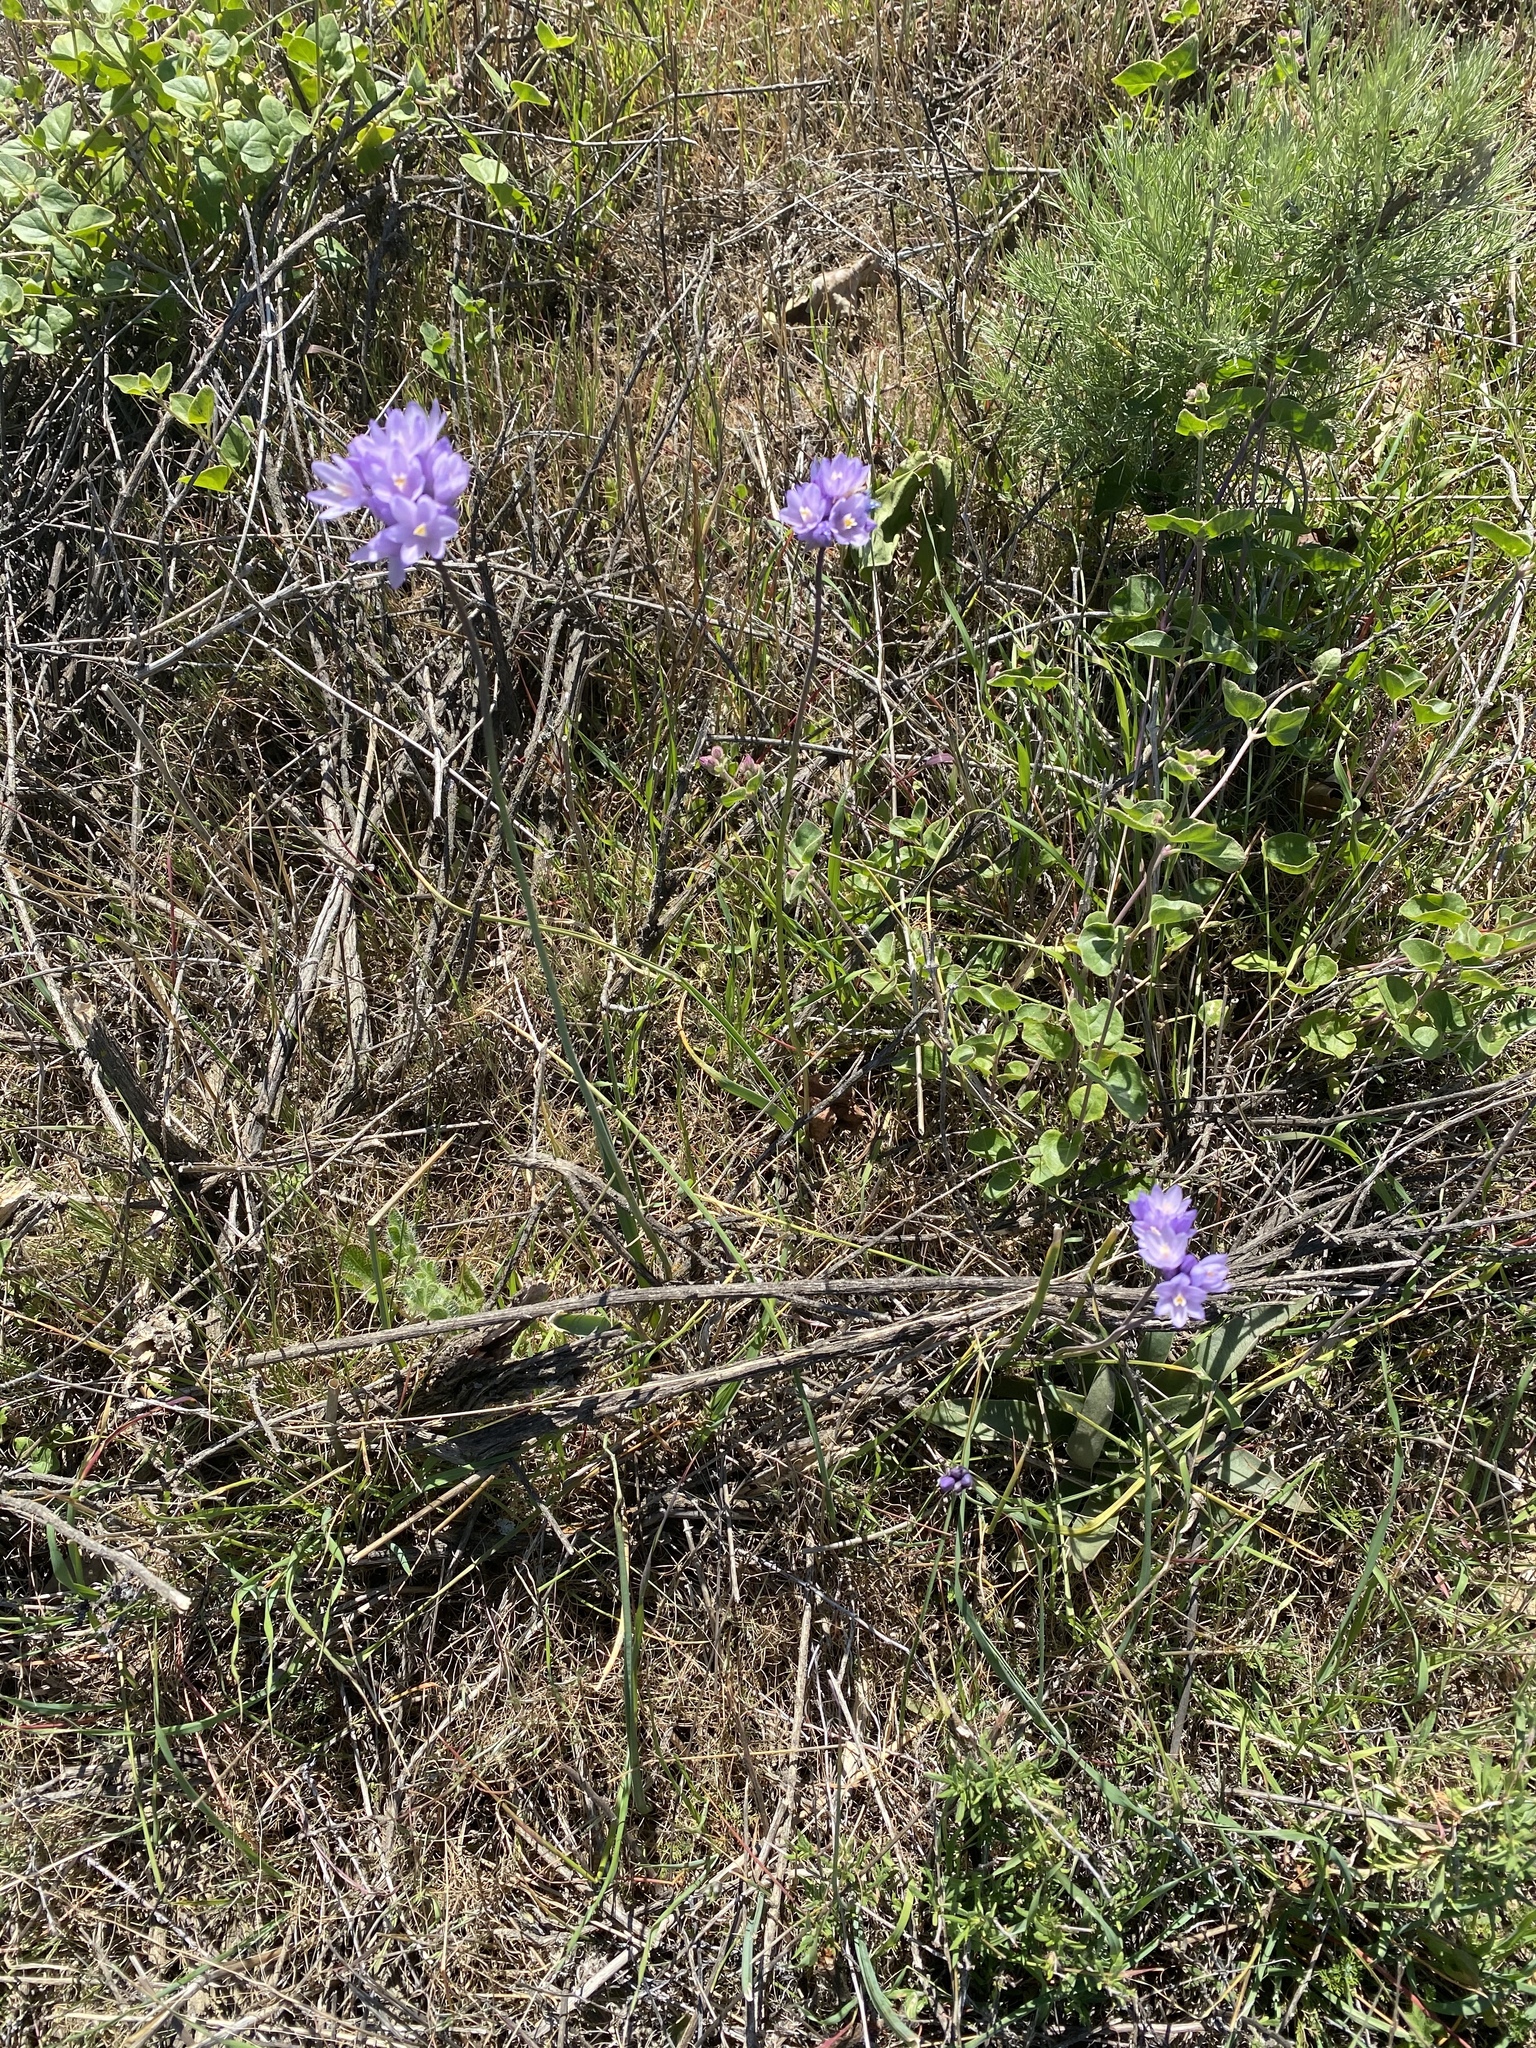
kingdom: Plantae
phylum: Tracheophyta
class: Liliopsida
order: Asparagales
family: Asparagaceae
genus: Dipterostemon
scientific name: Dipterostemon capitatus
